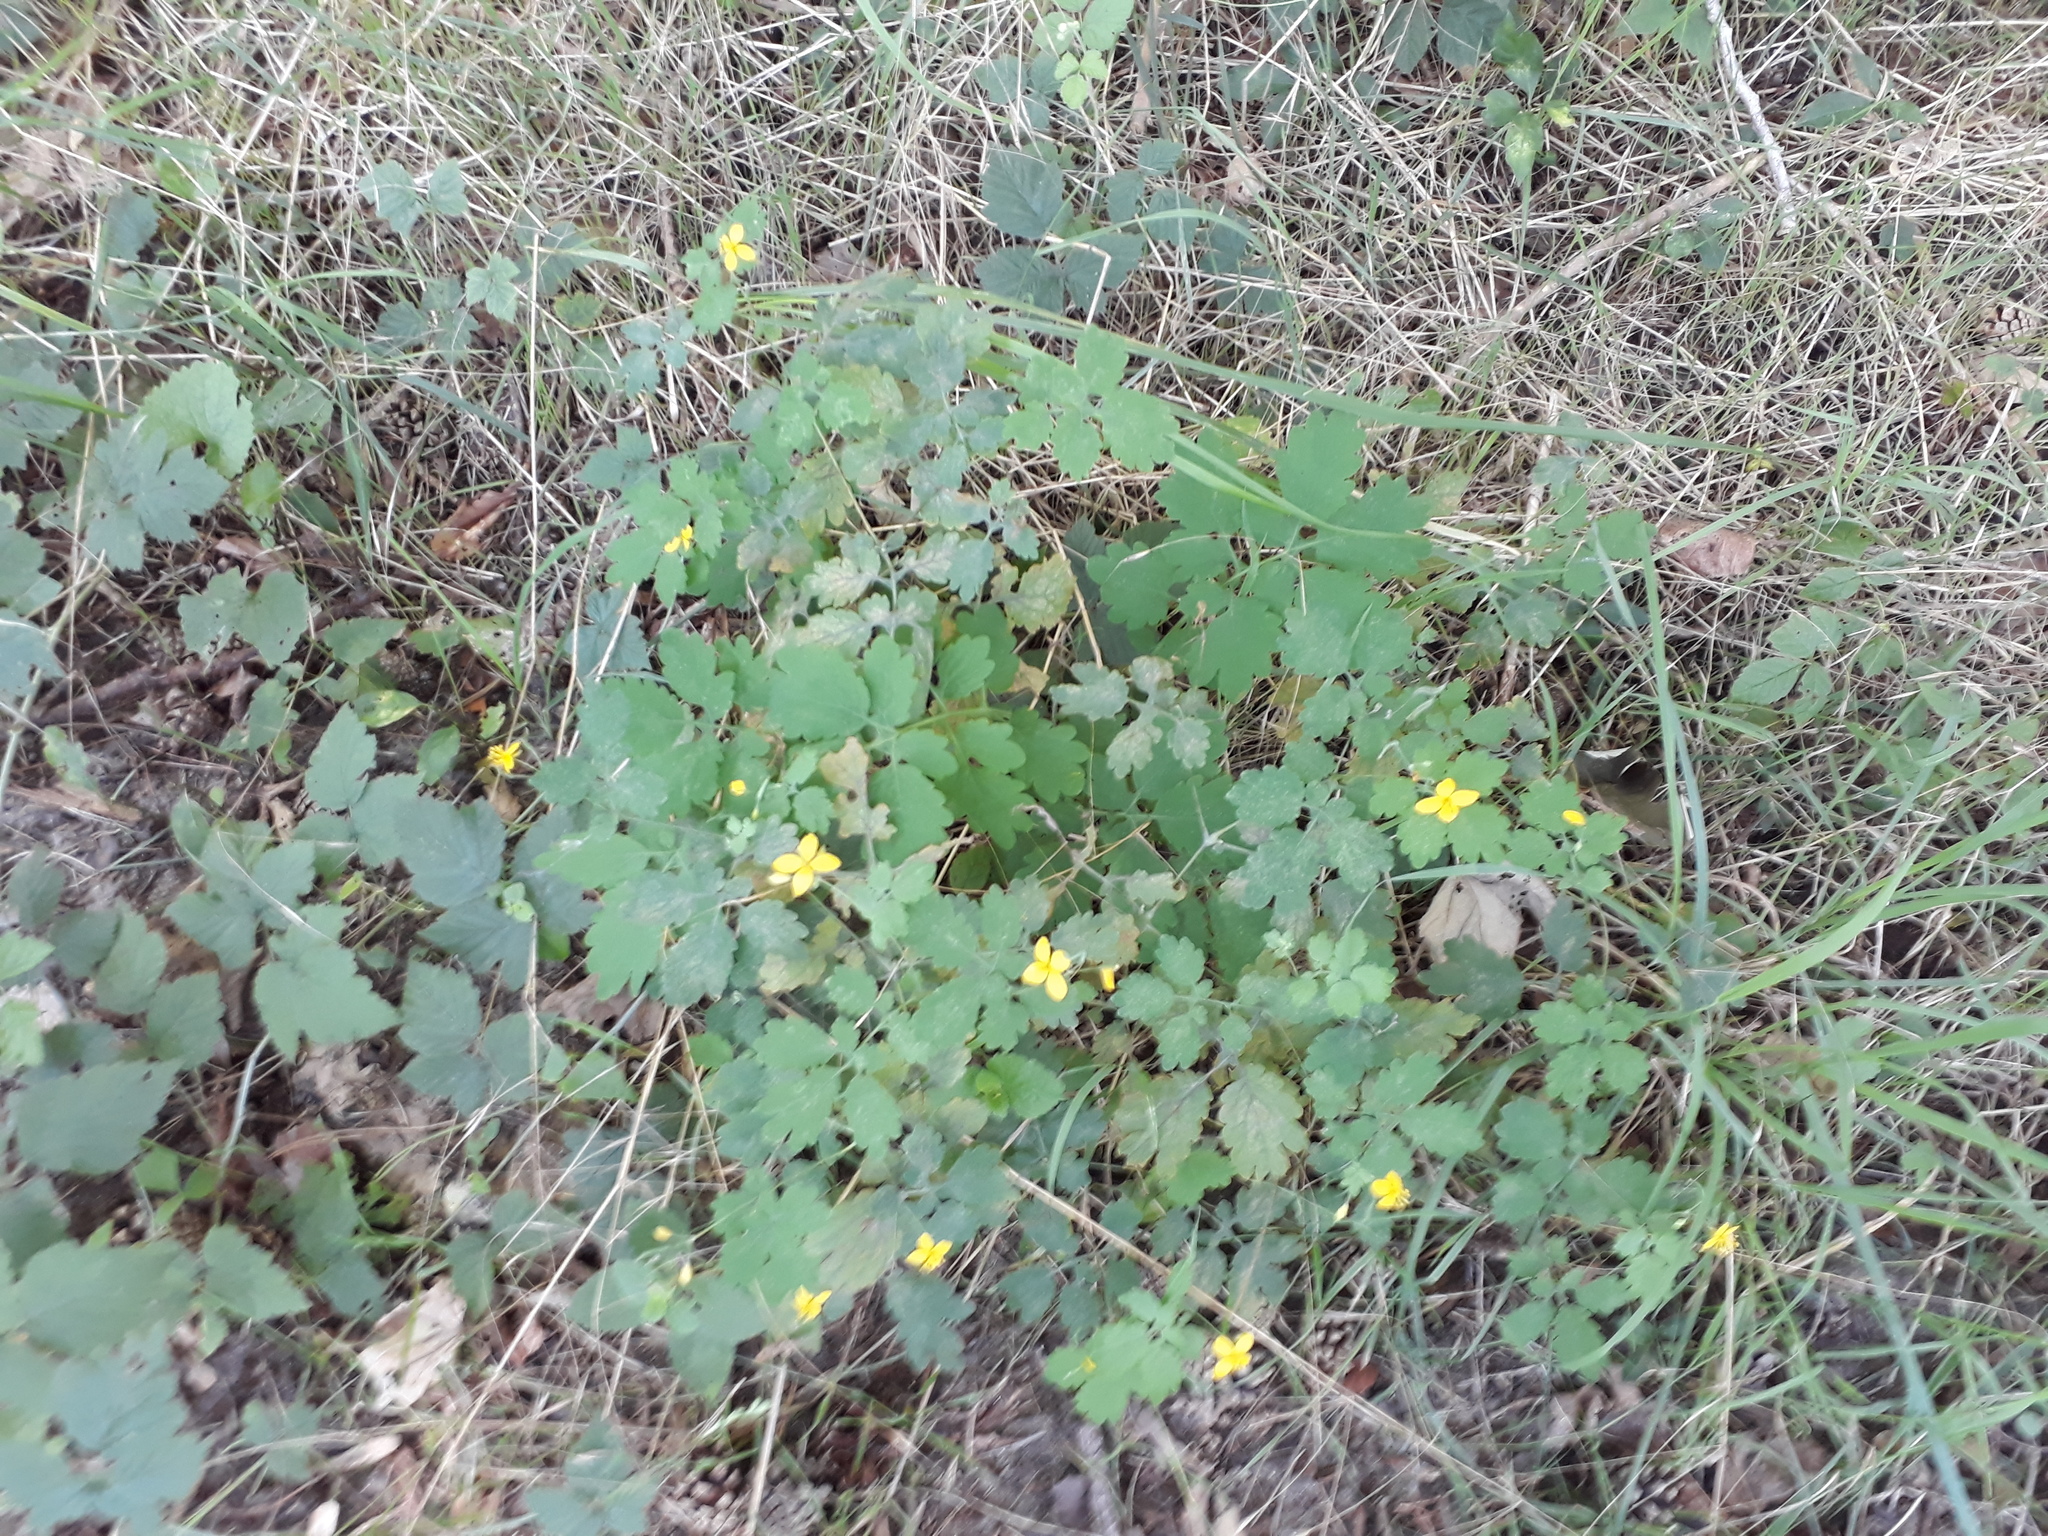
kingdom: Plantae
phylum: Tracheophyta
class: Magnoliopsida
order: Ranunculales
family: Papaveraceae
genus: Chelidonium
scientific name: Chelidonium majus
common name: Greater celandine
